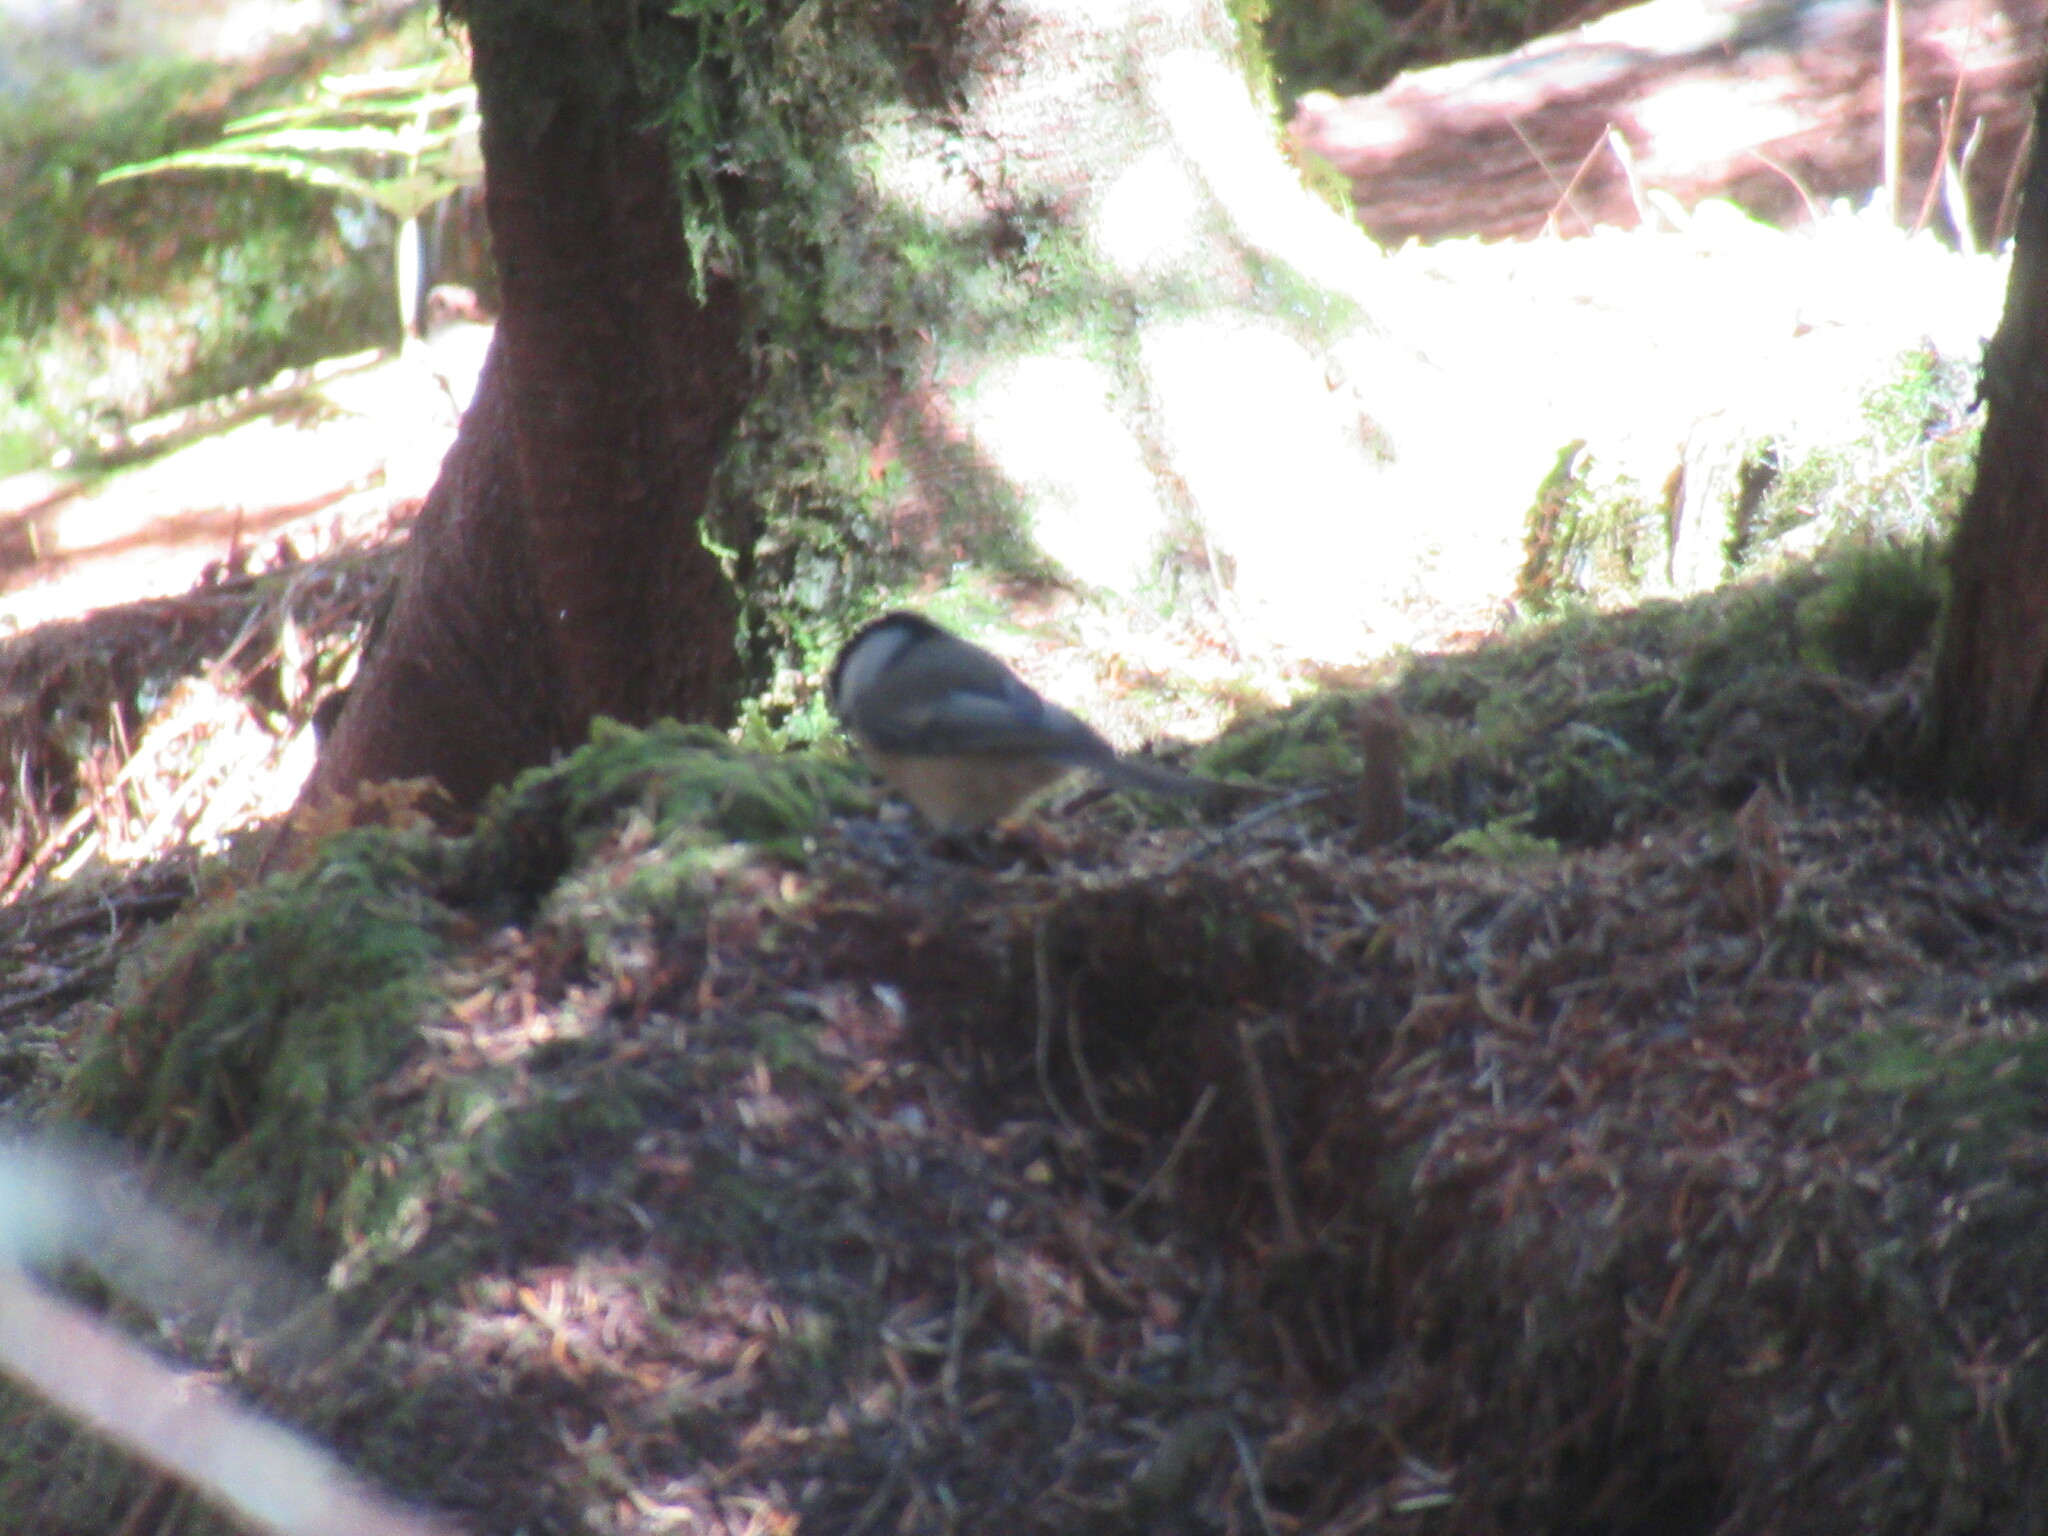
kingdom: Animalia
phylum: Chordata
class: Aves
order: Passeriformes
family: Paridae
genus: Poecile
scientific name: Poecile atricapillus
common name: Black-capped chickadee
